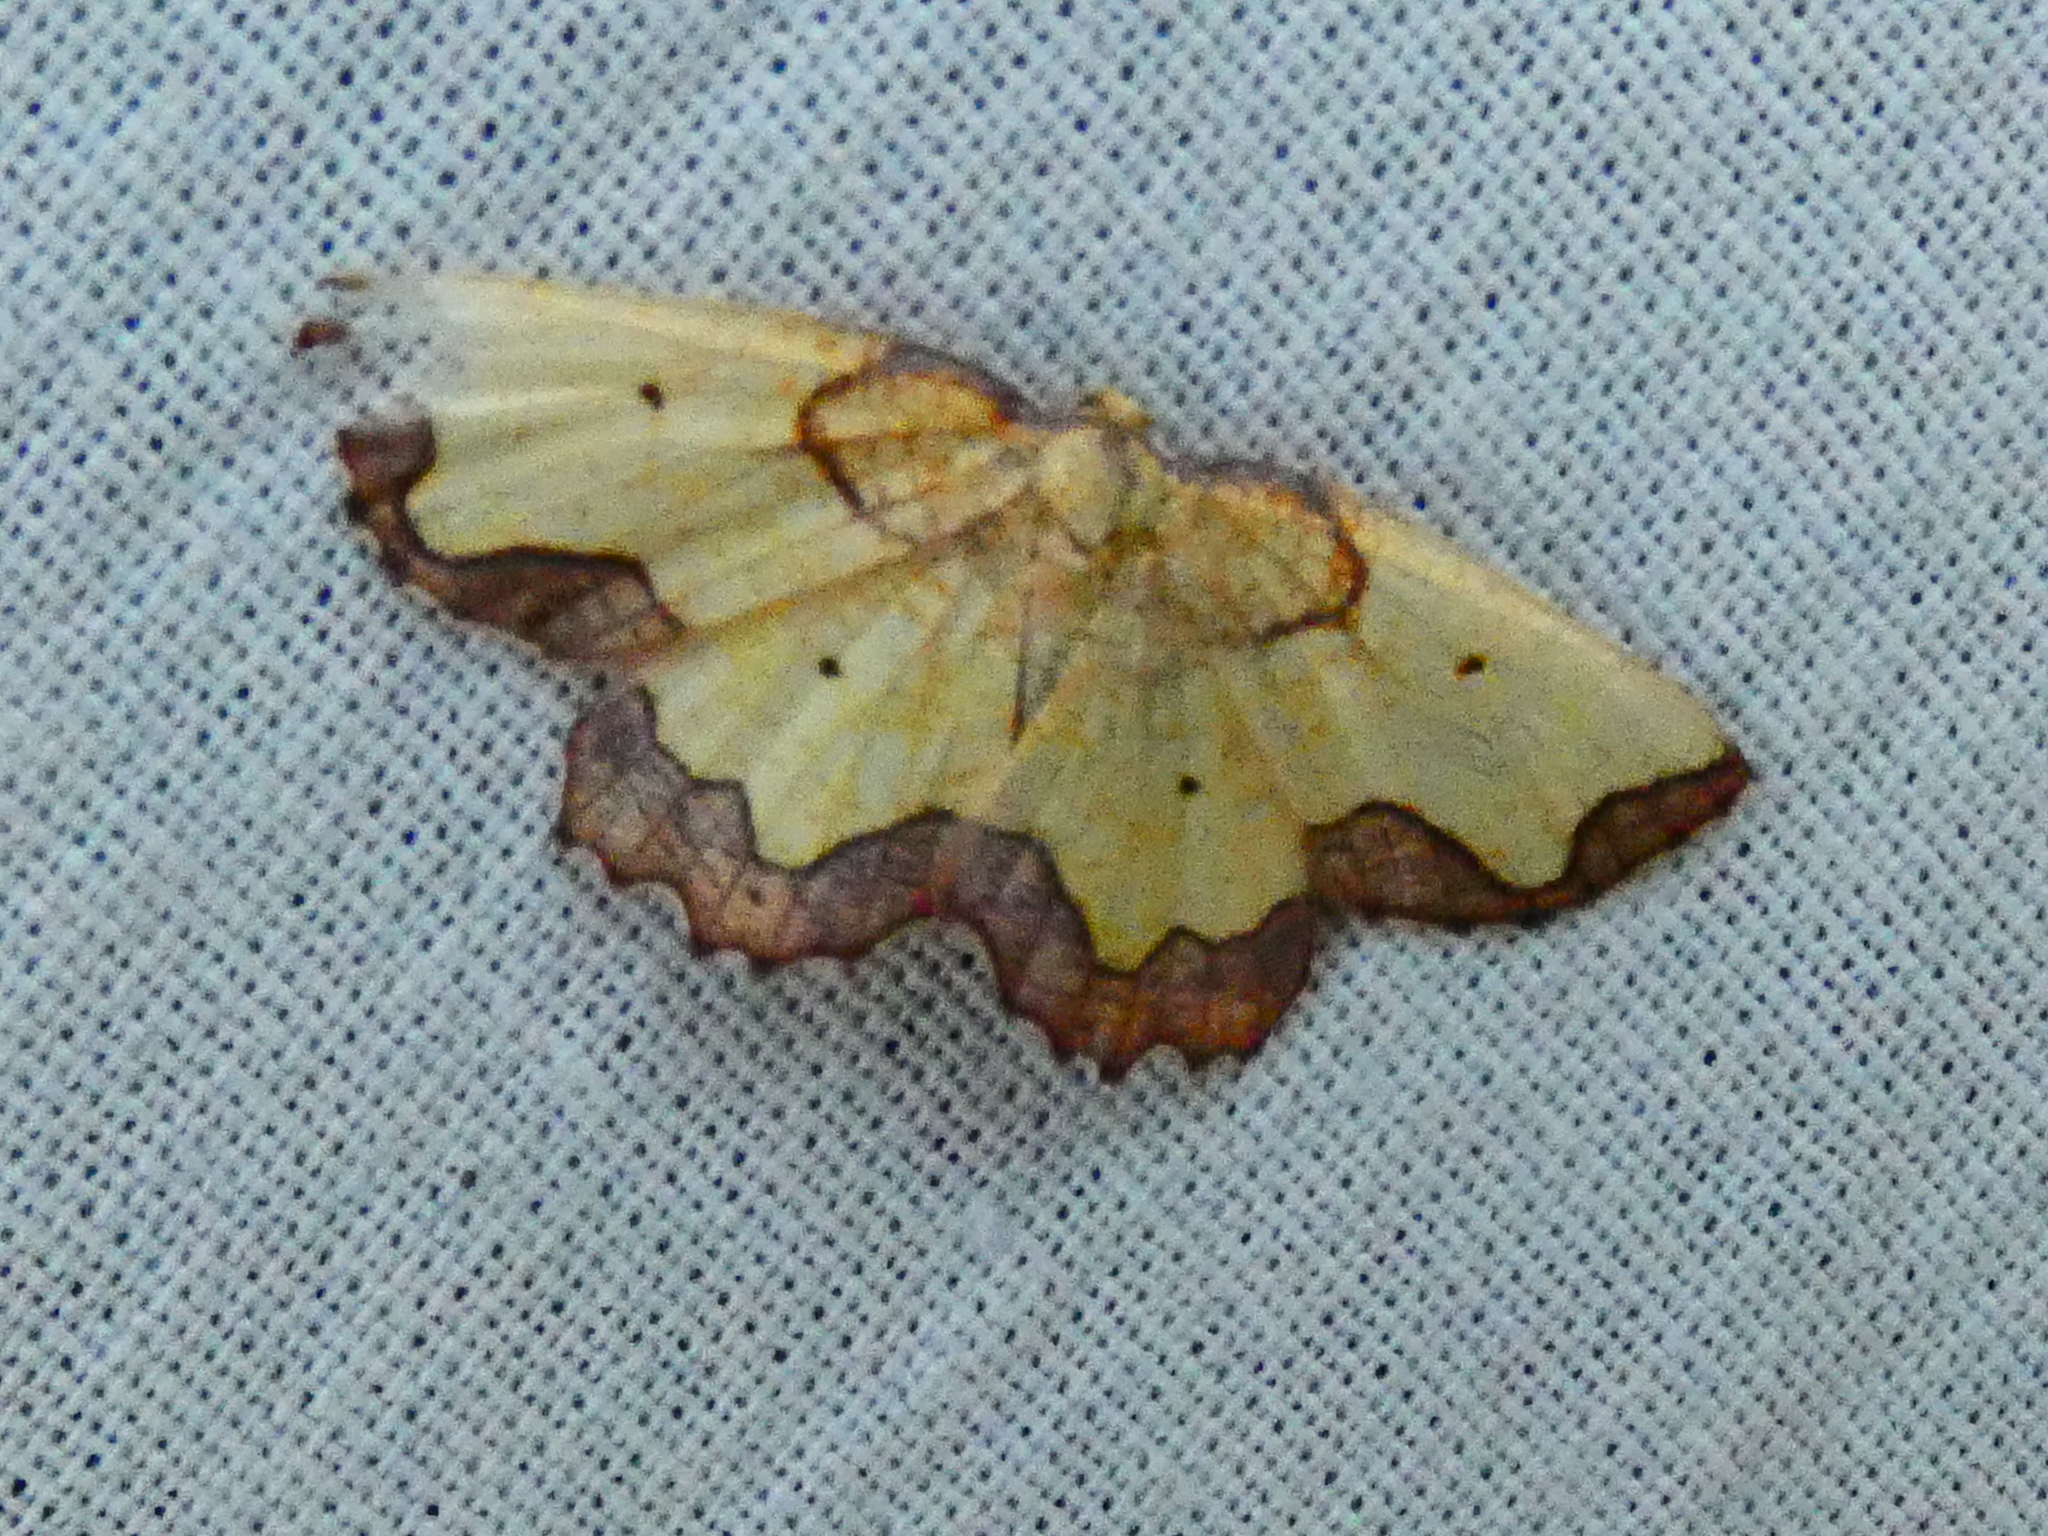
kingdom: Animalia
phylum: Arthropoda
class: Insecta
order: Lepidoptera
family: Geometridae
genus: Epione
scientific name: Epione vespertaria
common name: Dark bordered beauty
